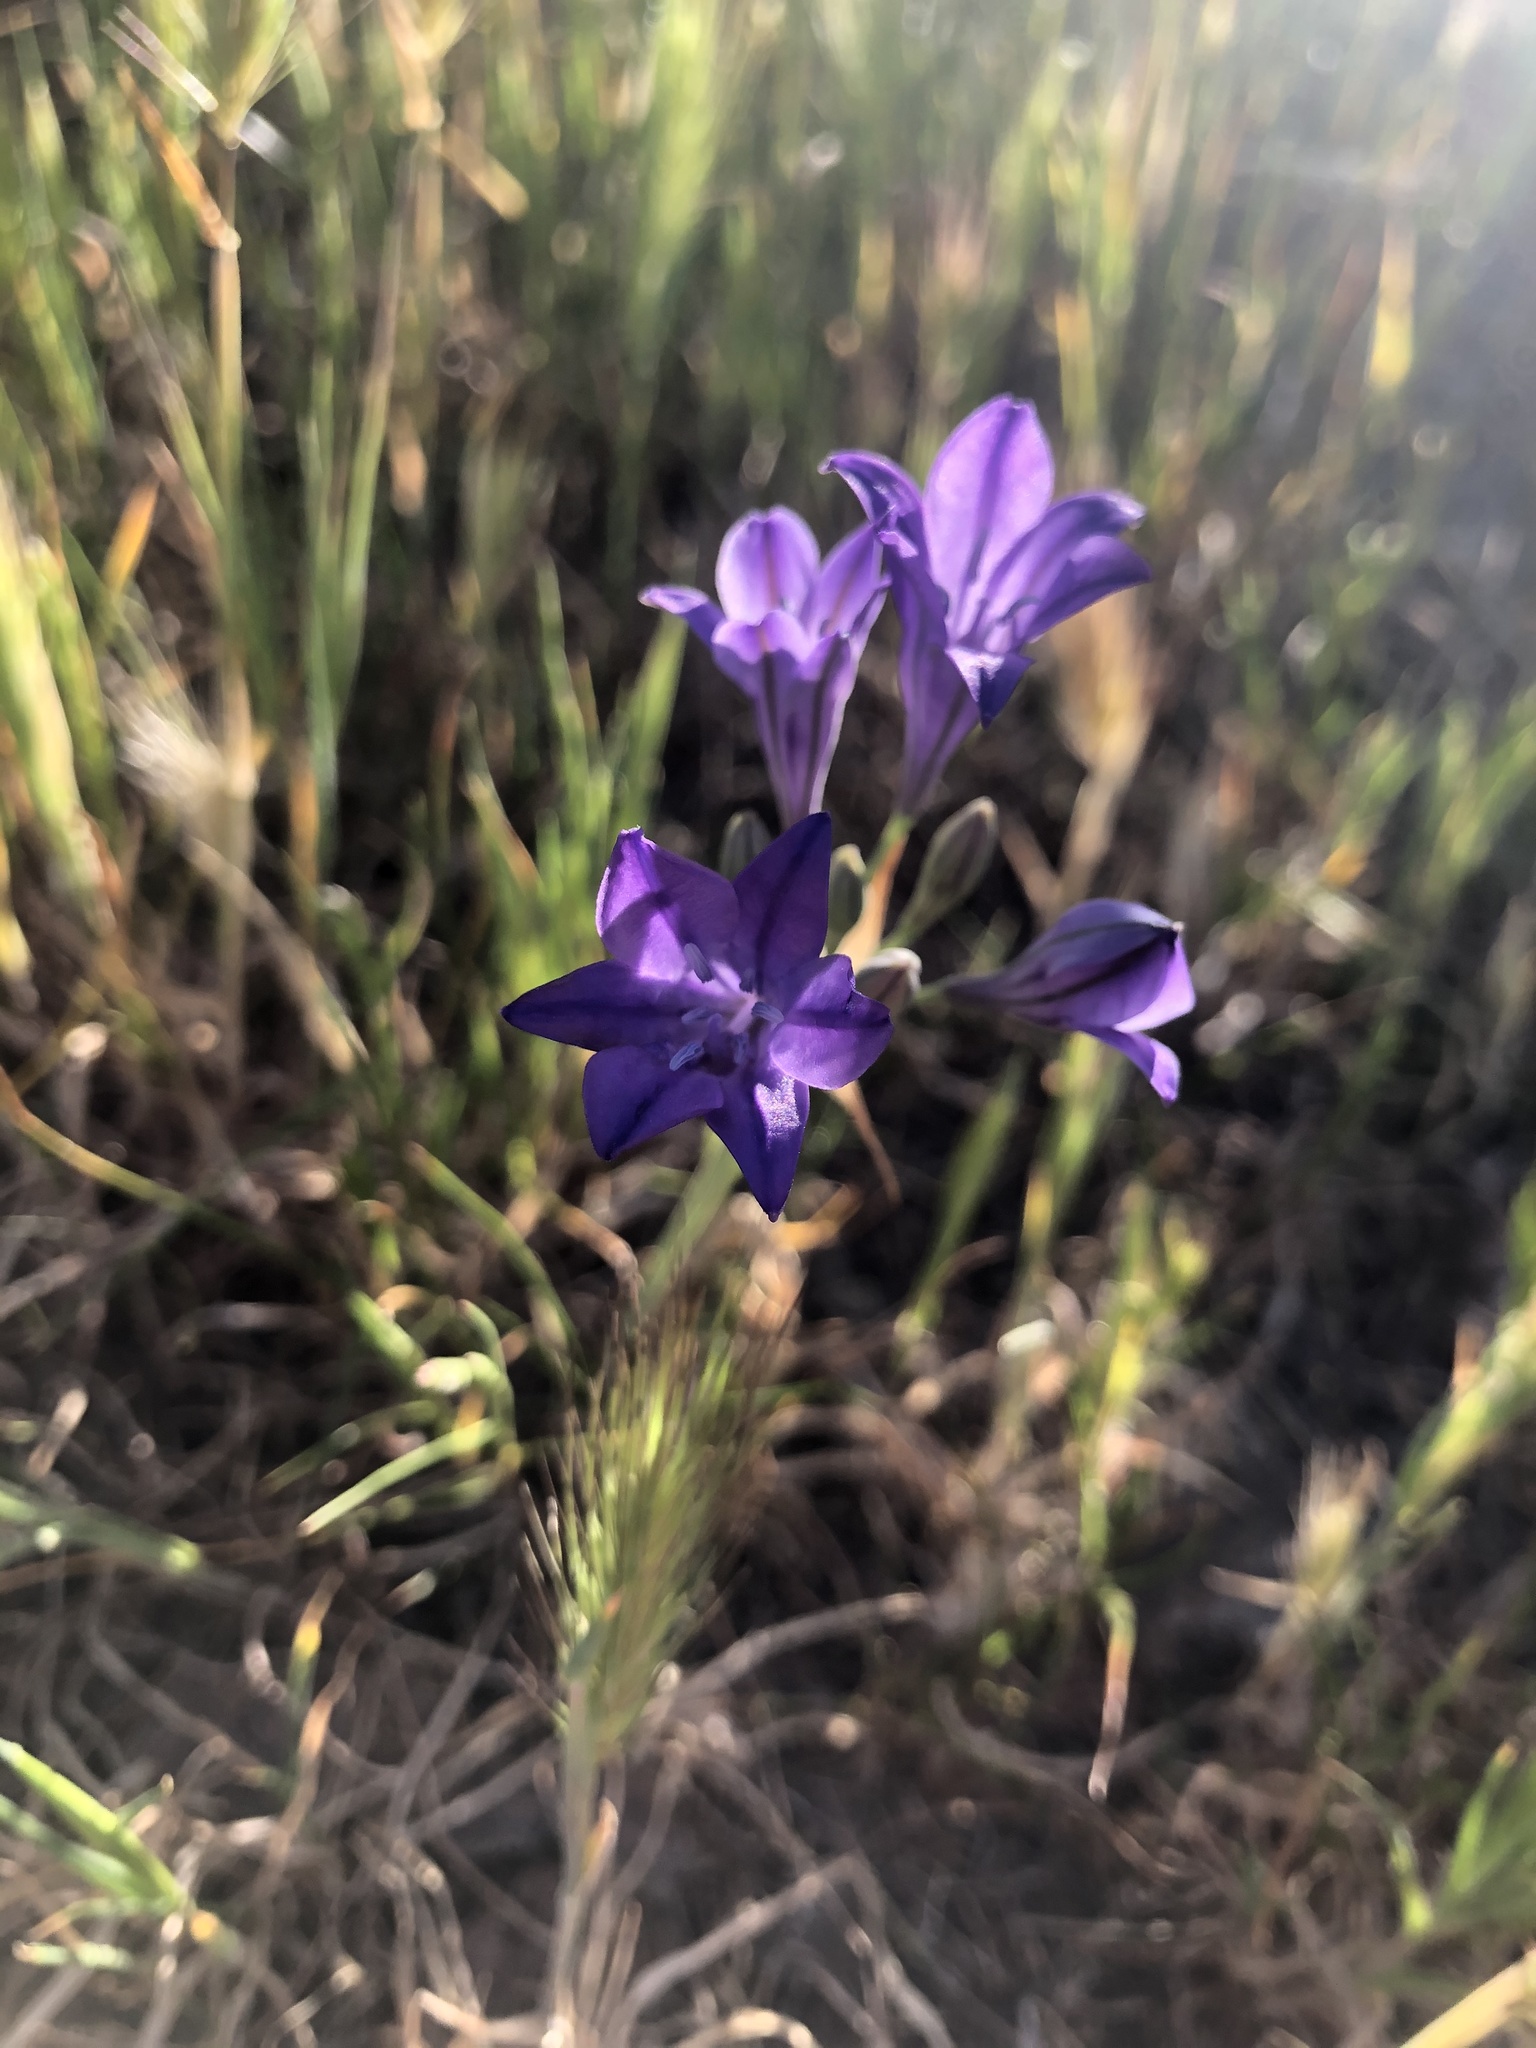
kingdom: Plantae
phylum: Tracheophyta
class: Liliopsida
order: Asparagales
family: Asparagaceae
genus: Triteleia
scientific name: Triteleia laxa
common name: Triplet-lily
